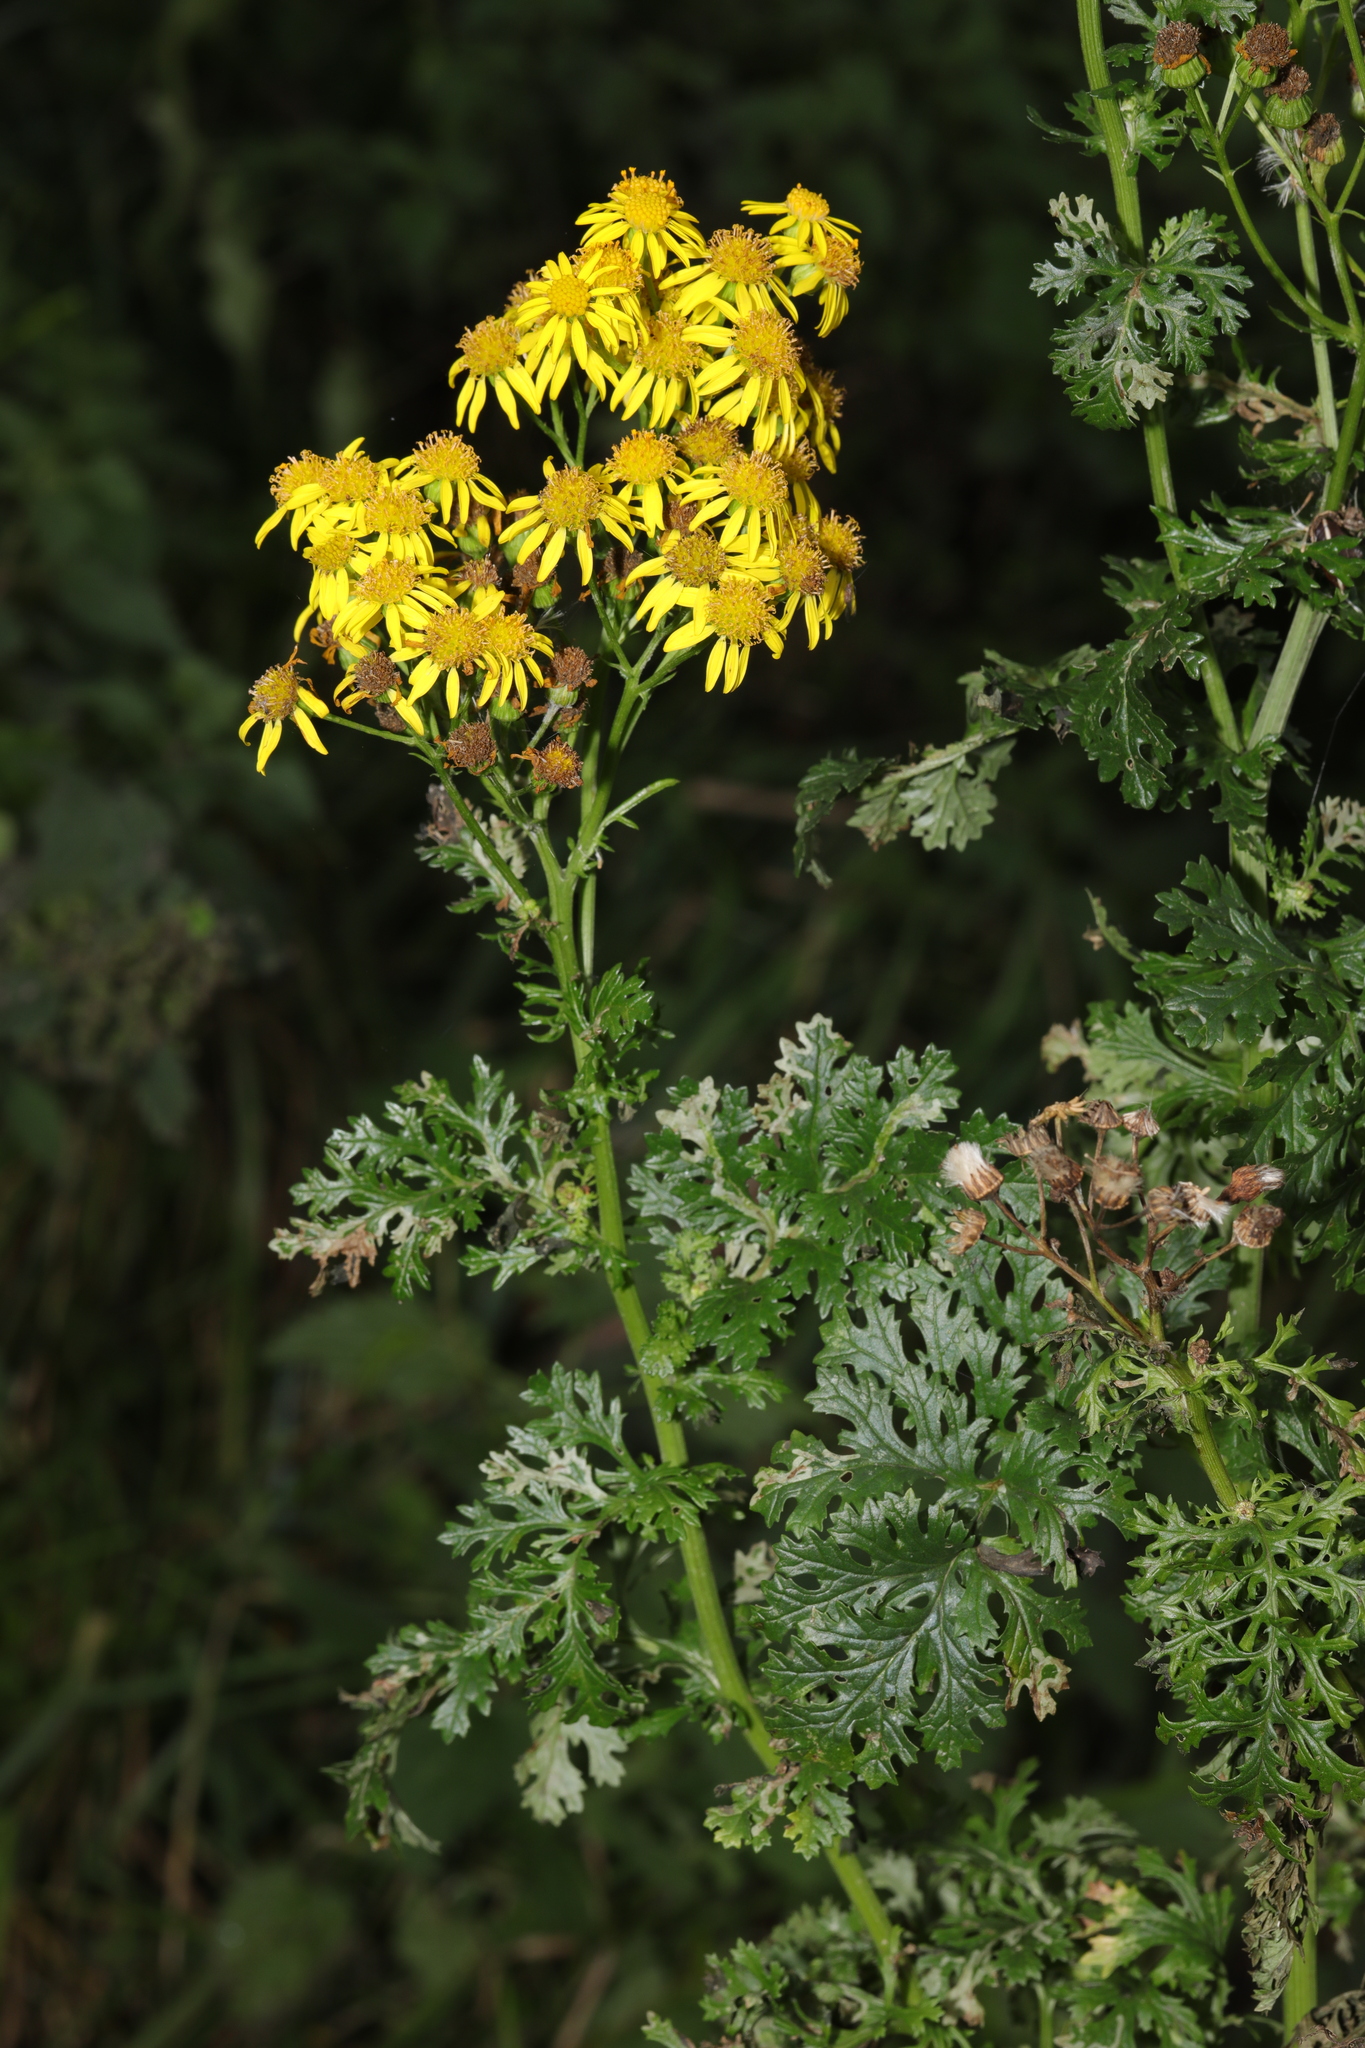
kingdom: Plantae
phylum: Tracheophyta
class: Magnoliopsida
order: Asterales
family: Asteraceae
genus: Jacobaea
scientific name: Jacobaea vulgaris
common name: Stinking willie
